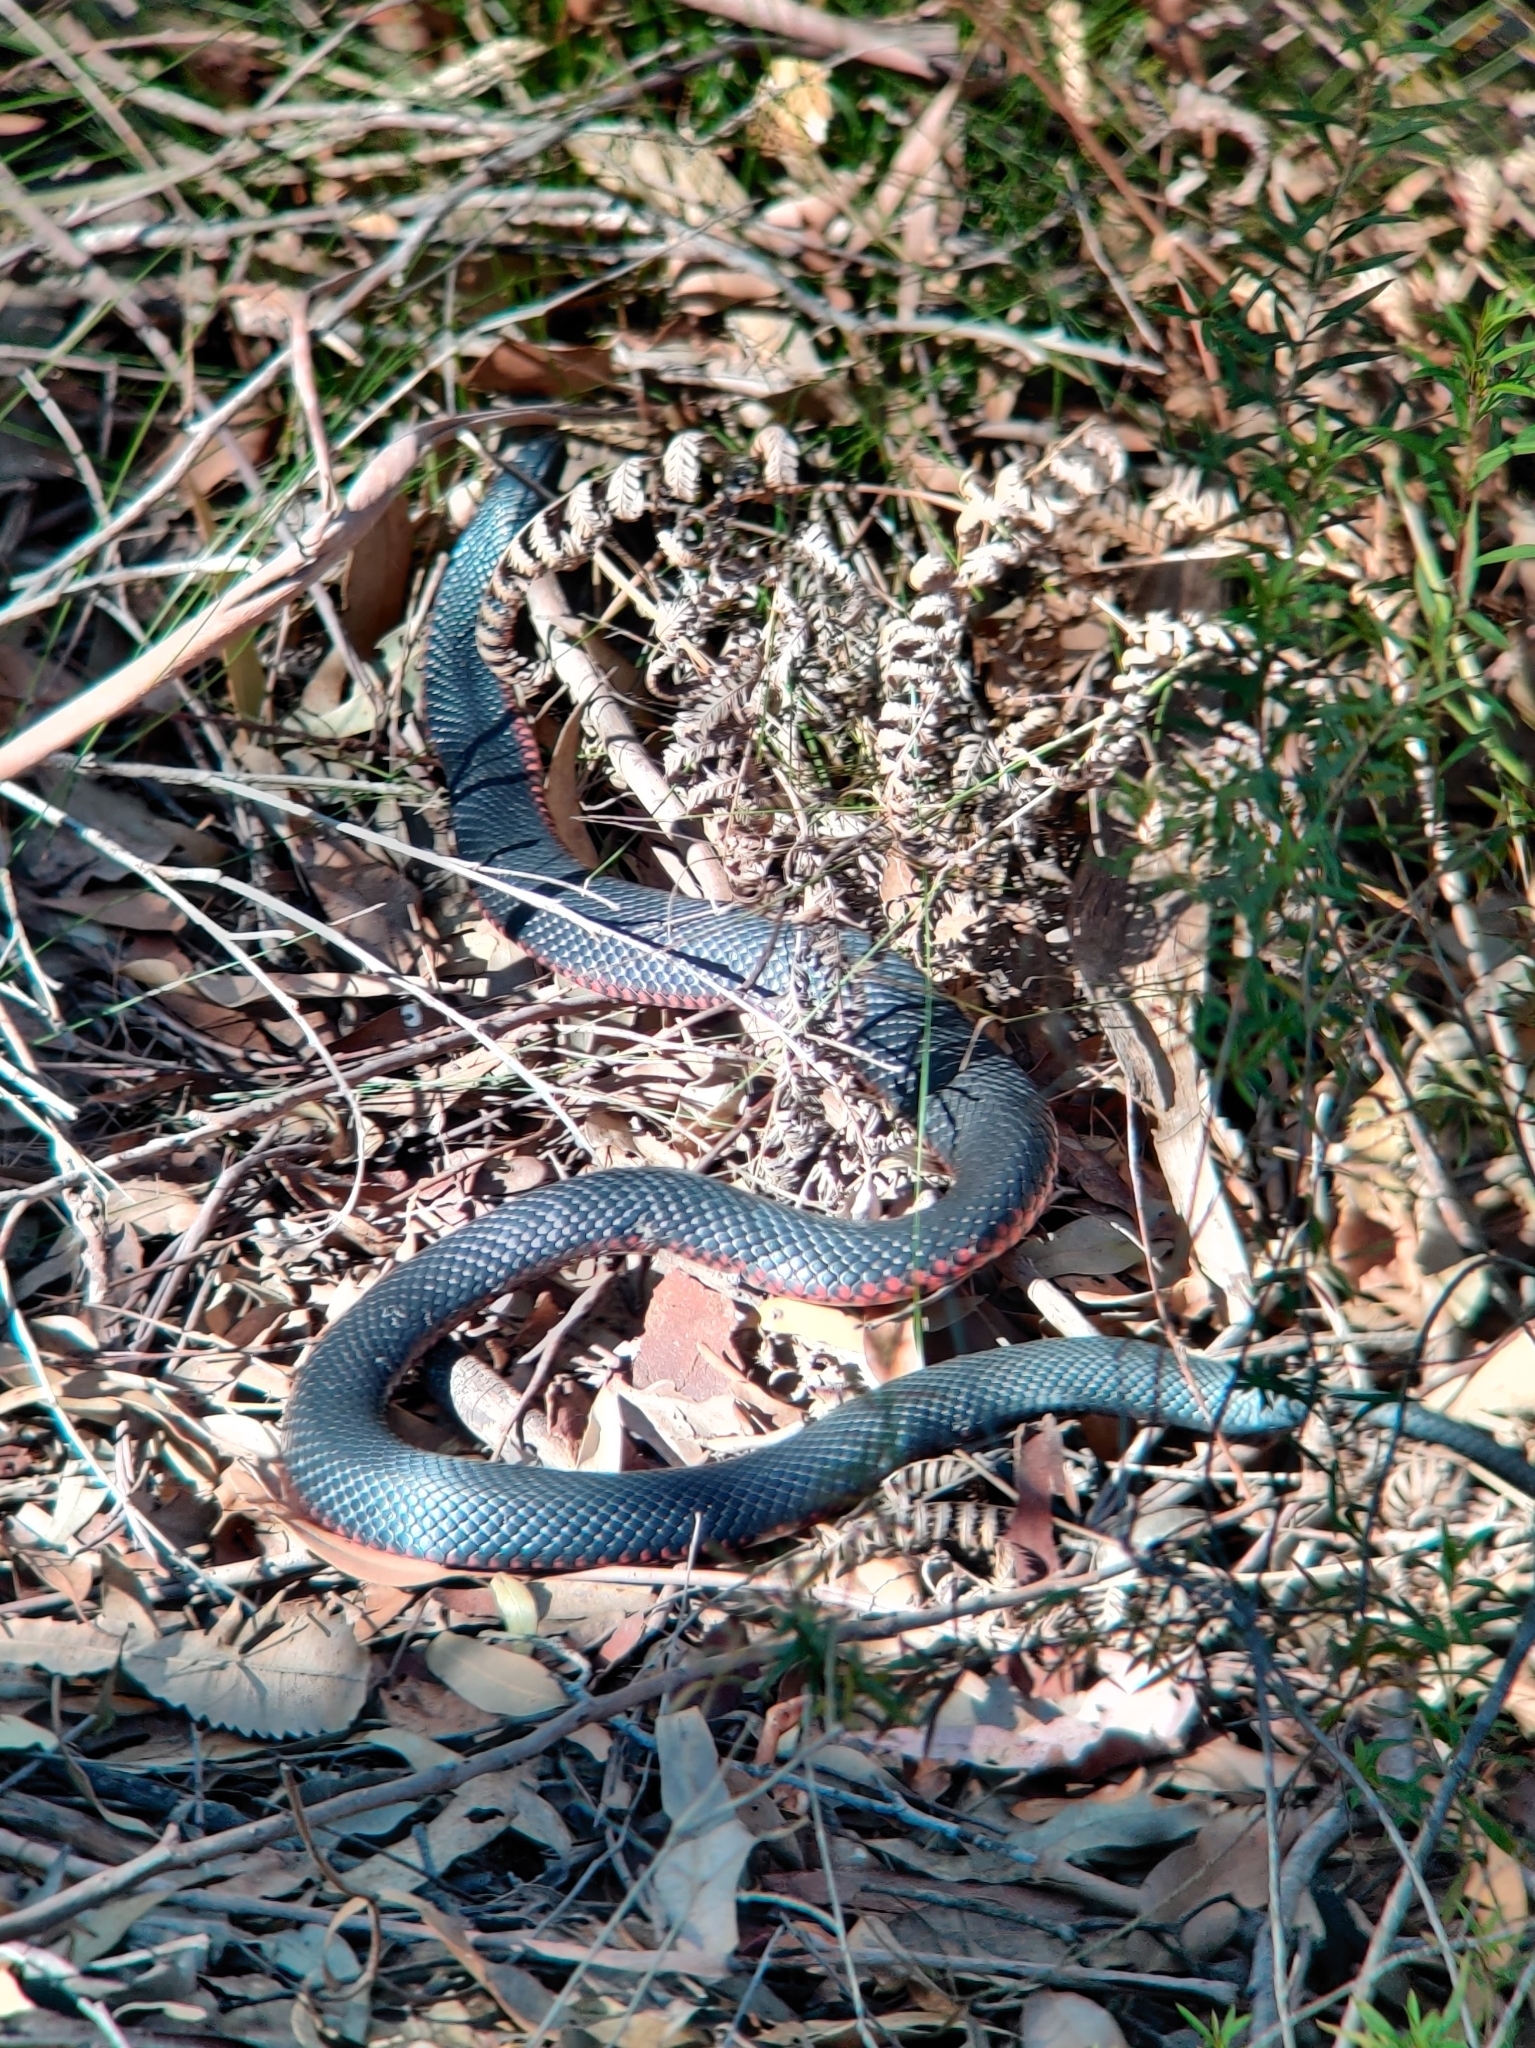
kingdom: Animalia
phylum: Chordata
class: Squamata
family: Elapidae
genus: Pseudechis
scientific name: Pseudechis porphyriacus
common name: Australian black snake
